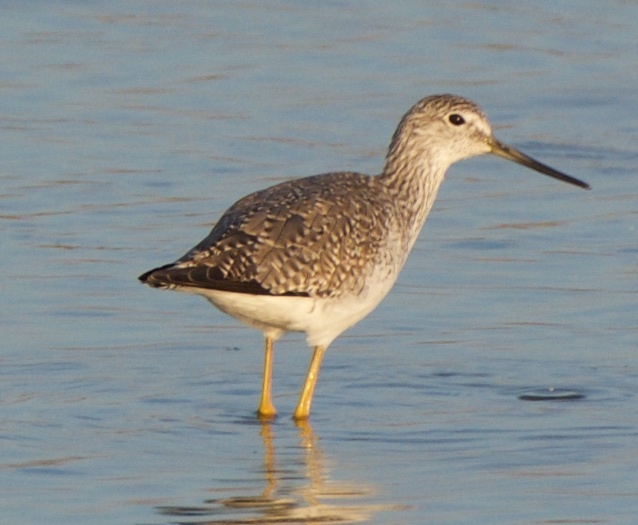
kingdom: Animalia
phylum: Chordata
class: Aves
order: Charadriiformes
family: Scolopacidae
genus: Tringa
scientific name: Tringa melanoleuca
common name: Greater yellowlegs
